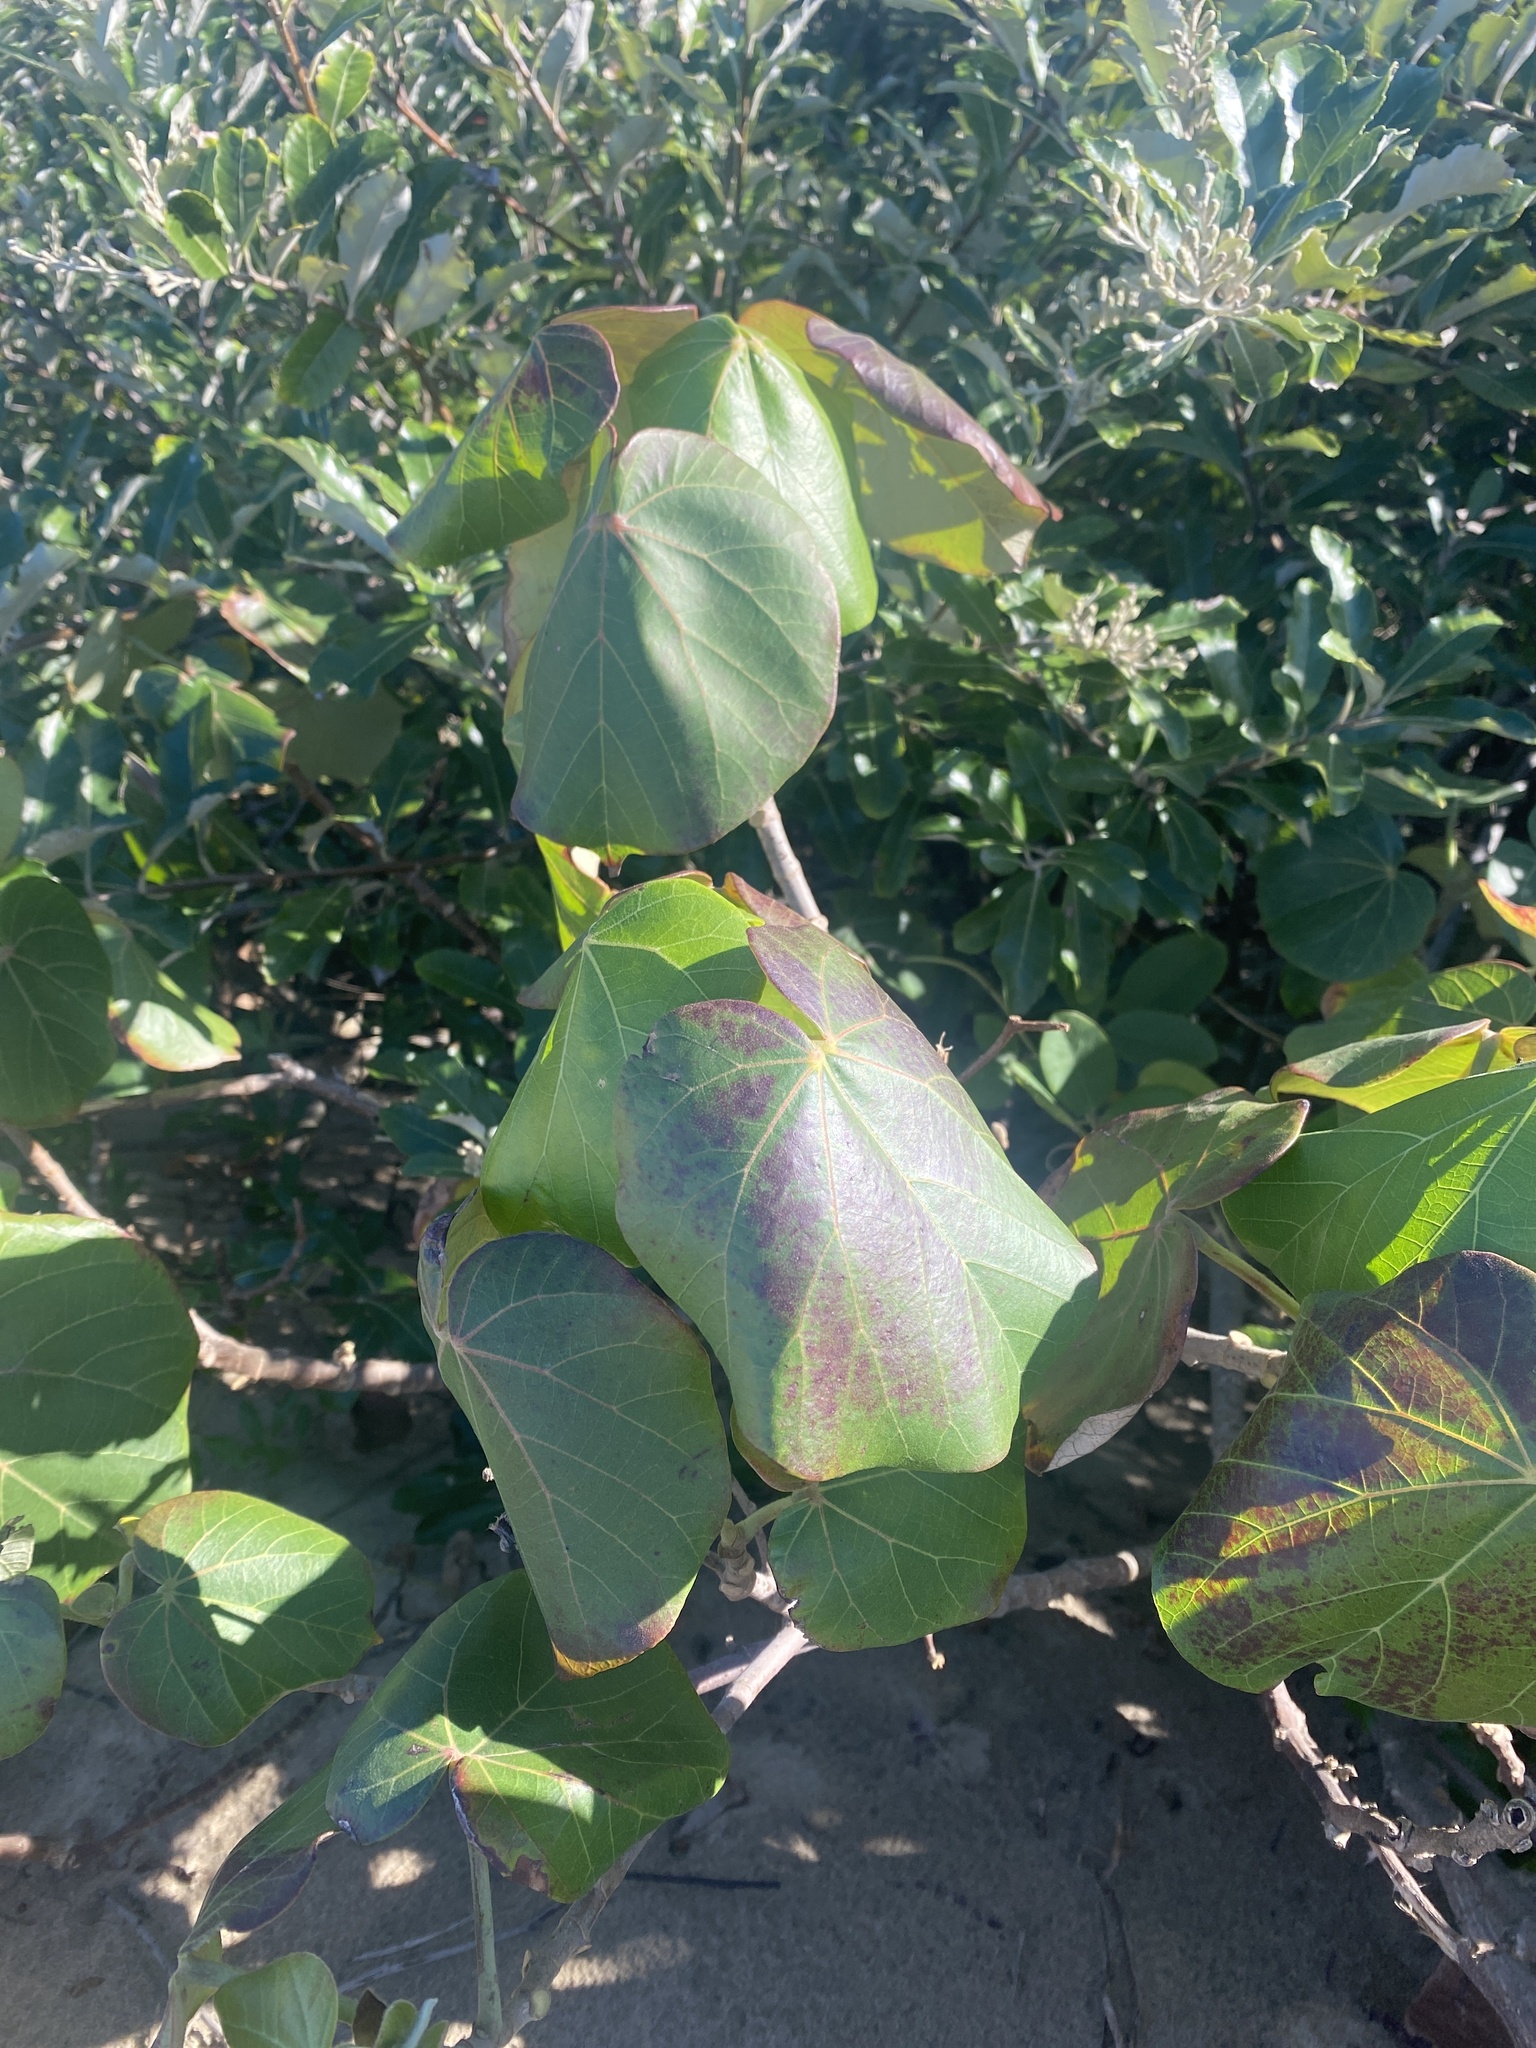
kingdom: Plantae
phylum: Tracheophyta
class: Magnoliopsida
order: Malvales
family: Malvaceae
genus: Talipariti
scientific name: Talipariti tiliaceum
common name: Sea hibiscus
